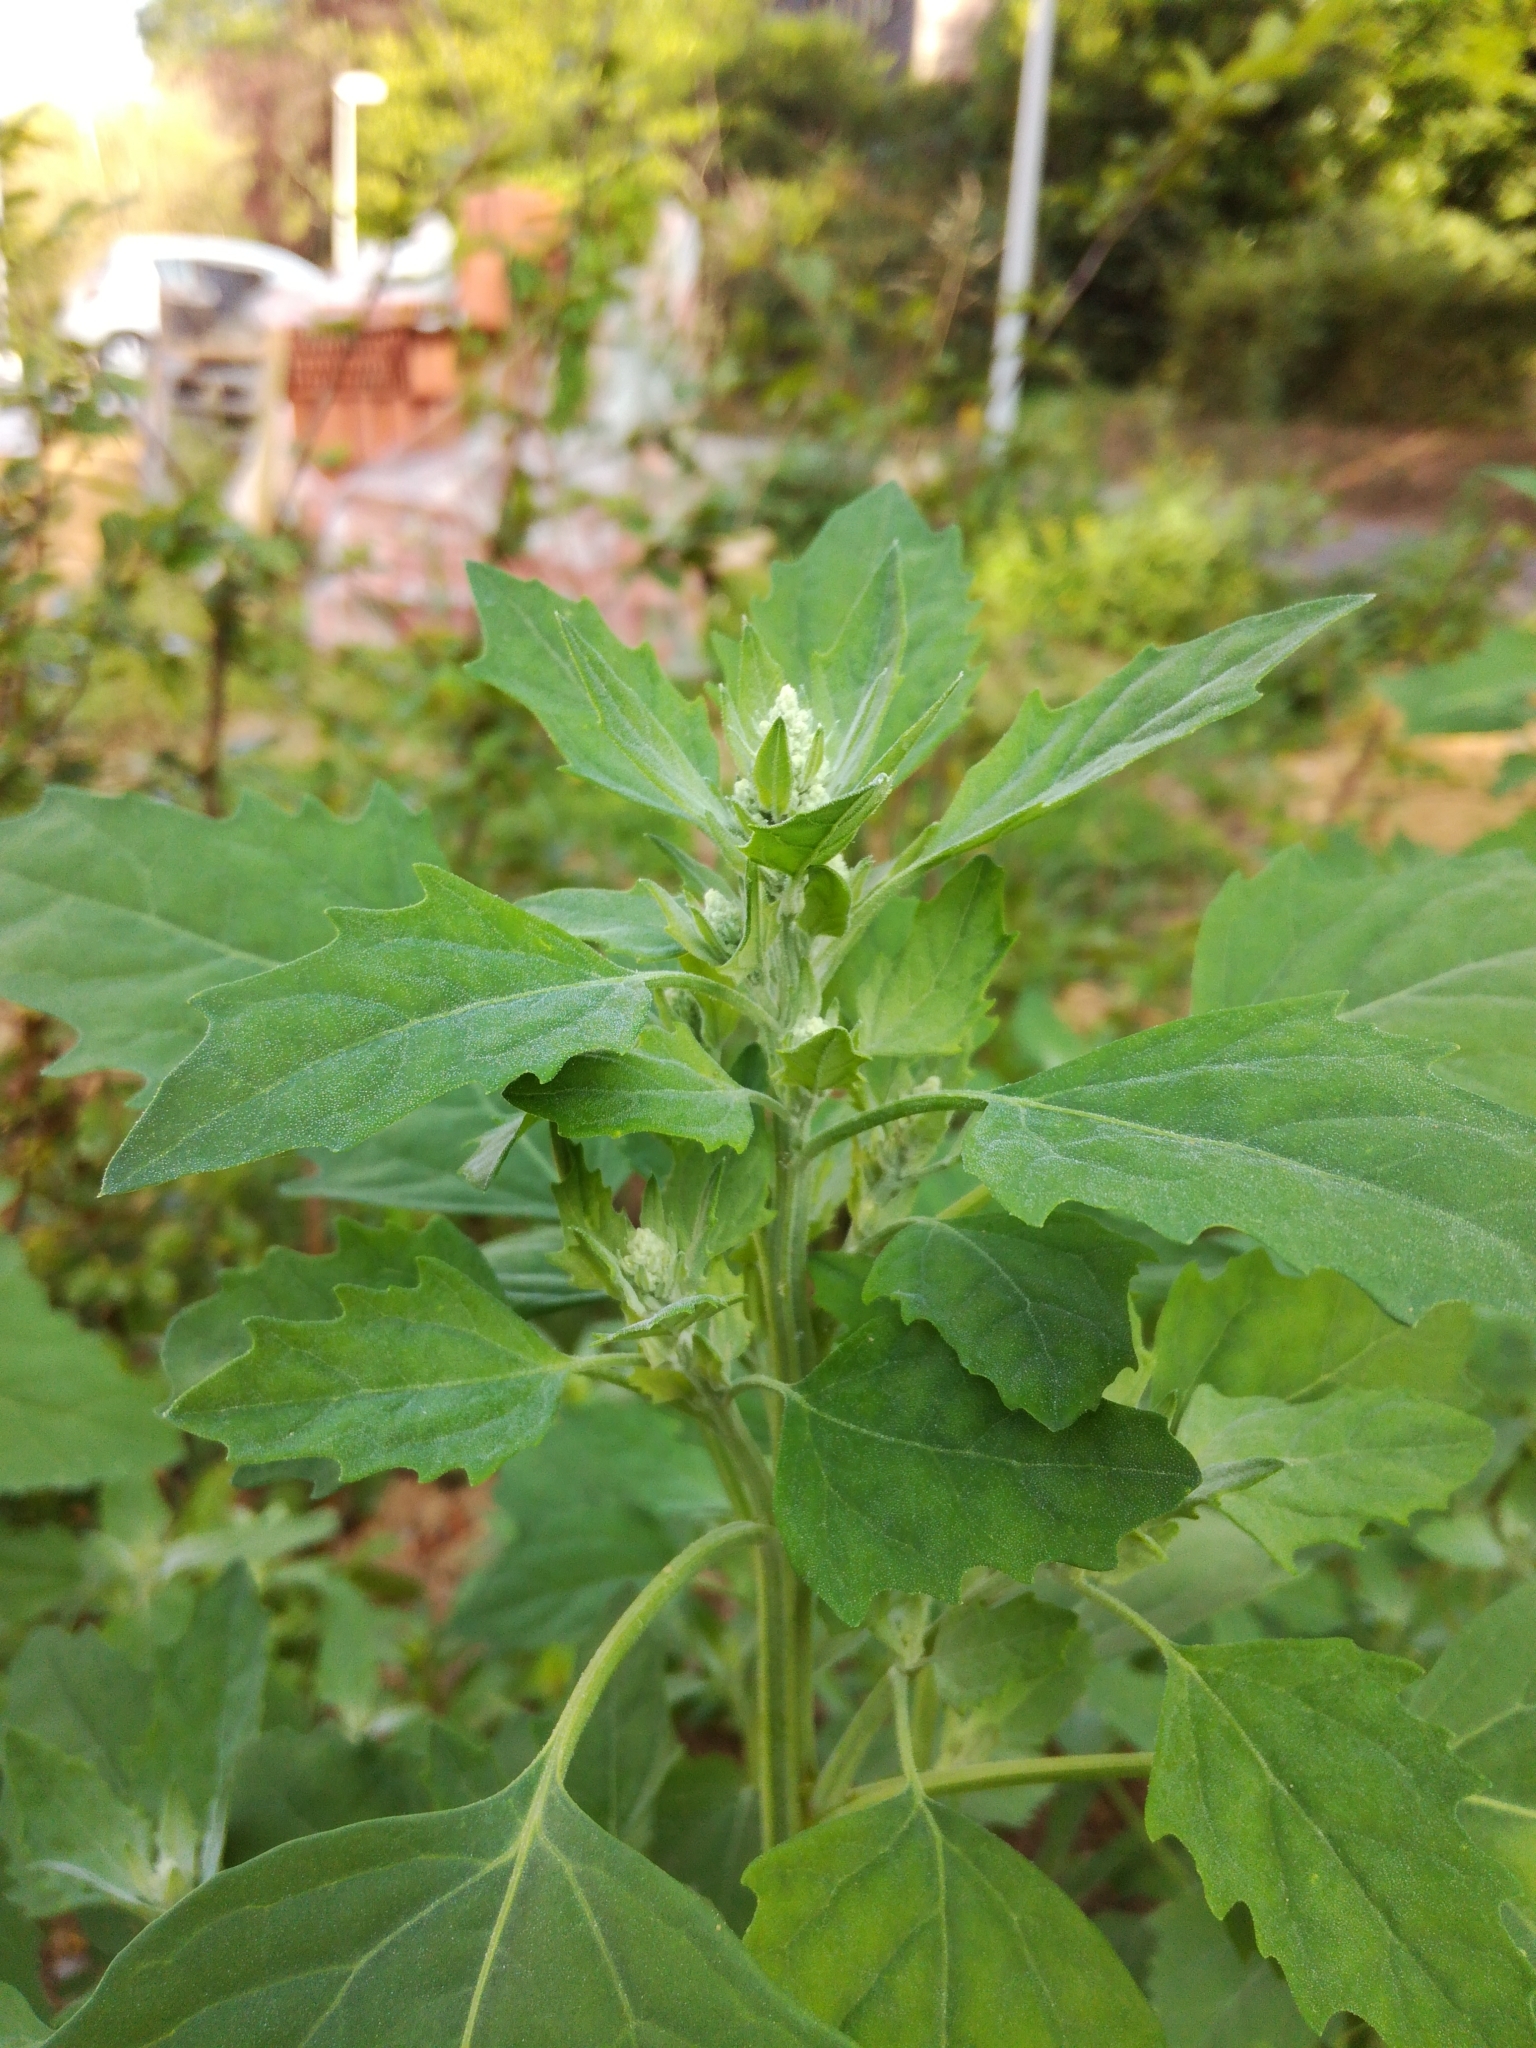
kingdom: Plantae
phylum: Tracheophyta
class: Magnoliopsida
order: Caryophyllales
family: Amaranthaceae
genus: Chenopodium
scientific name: Chenopodium album
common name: Fat-hen
